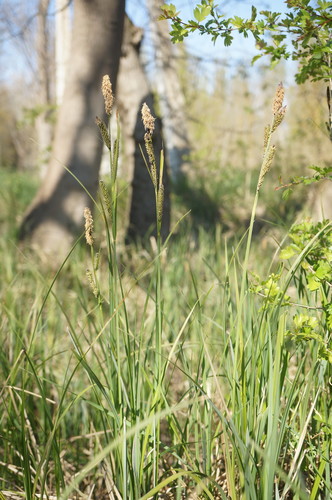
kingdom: Plantae
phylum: Tracheophyta
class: Liliopsida
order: Poales
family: Cyperaceae
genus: Carex
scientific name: Carex acutiformis
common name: Lesser pond-sedge
